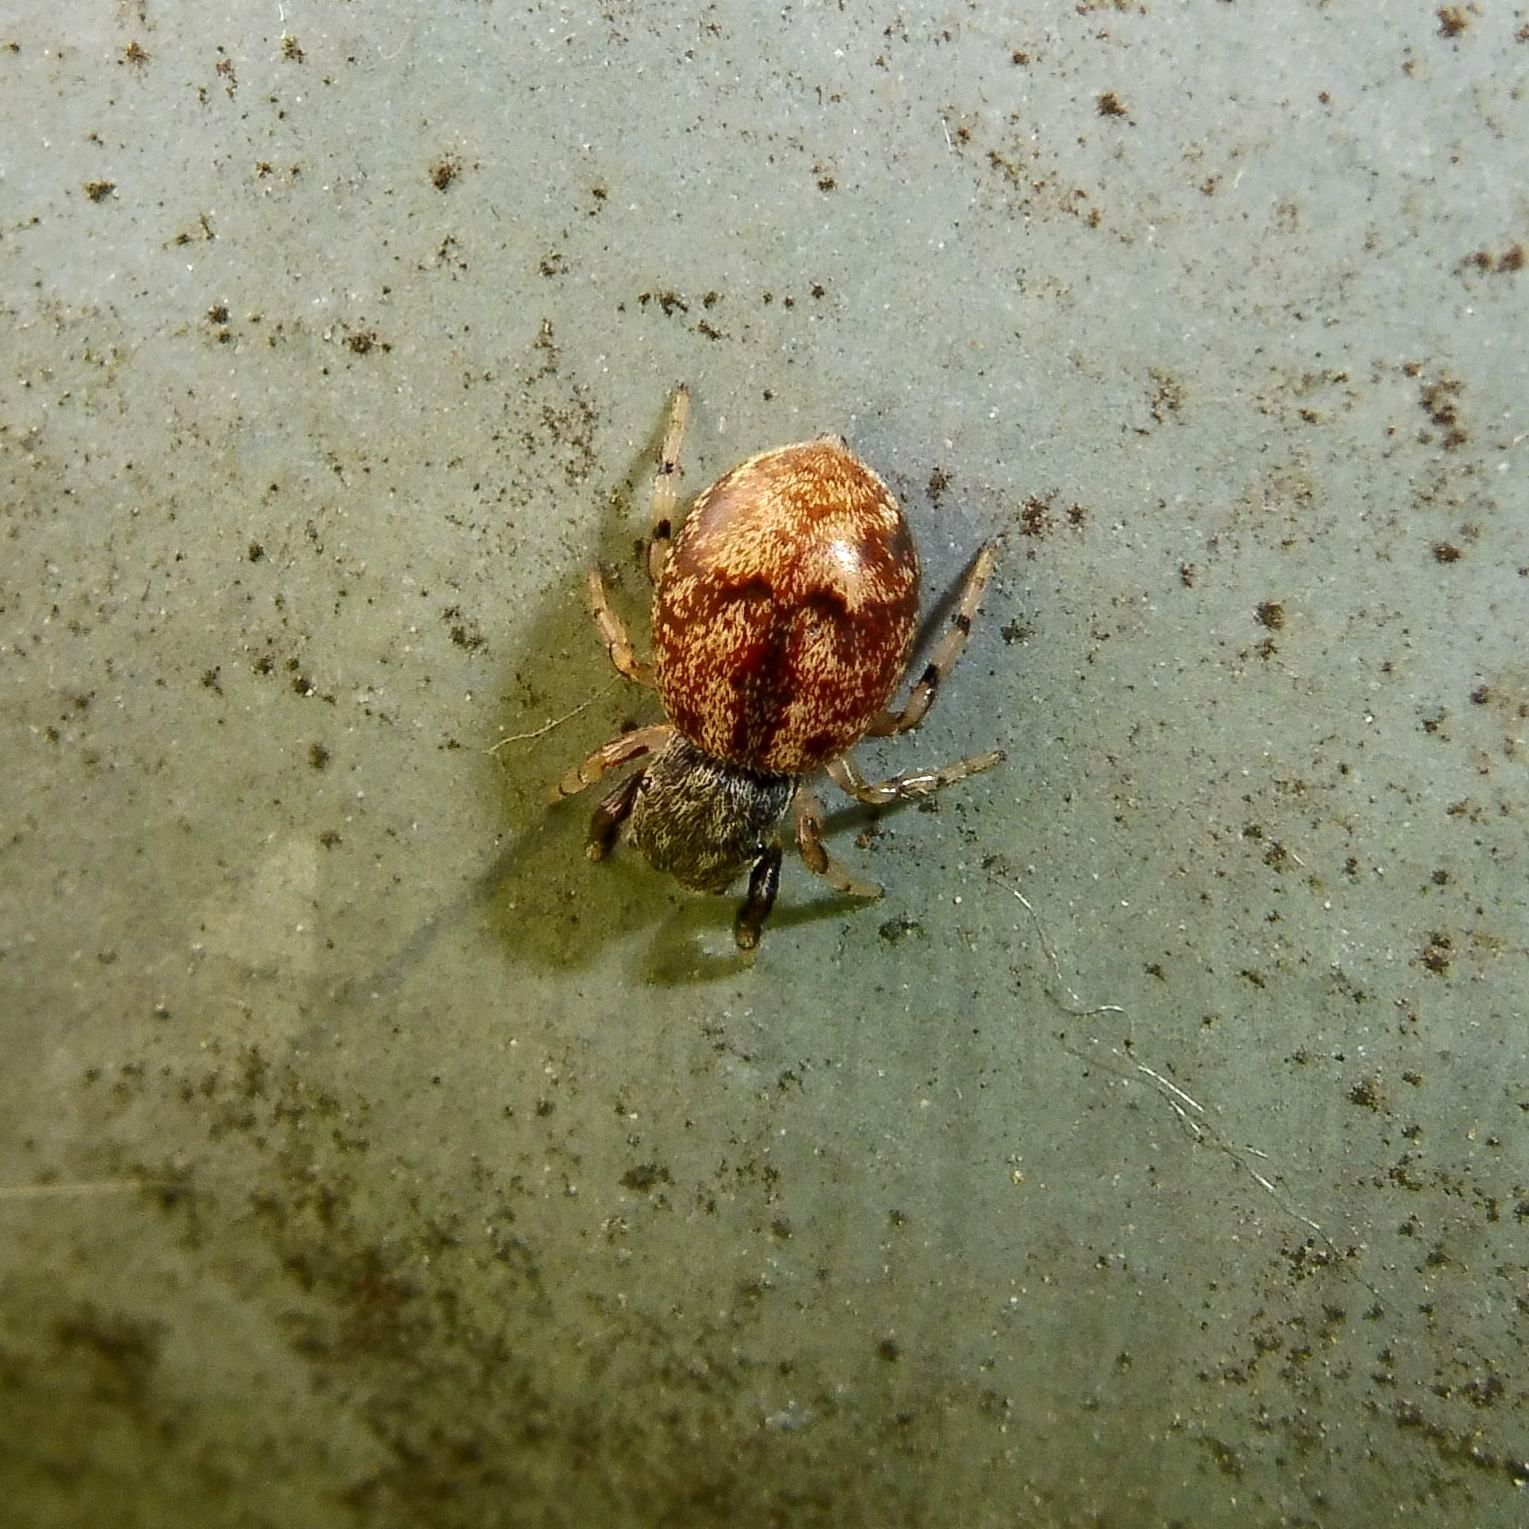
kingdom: Animalia
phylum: Arthropoda
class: Arachnida
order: Araneae
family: Salticidae
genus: Ballus
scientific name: Ballus chalybeius
